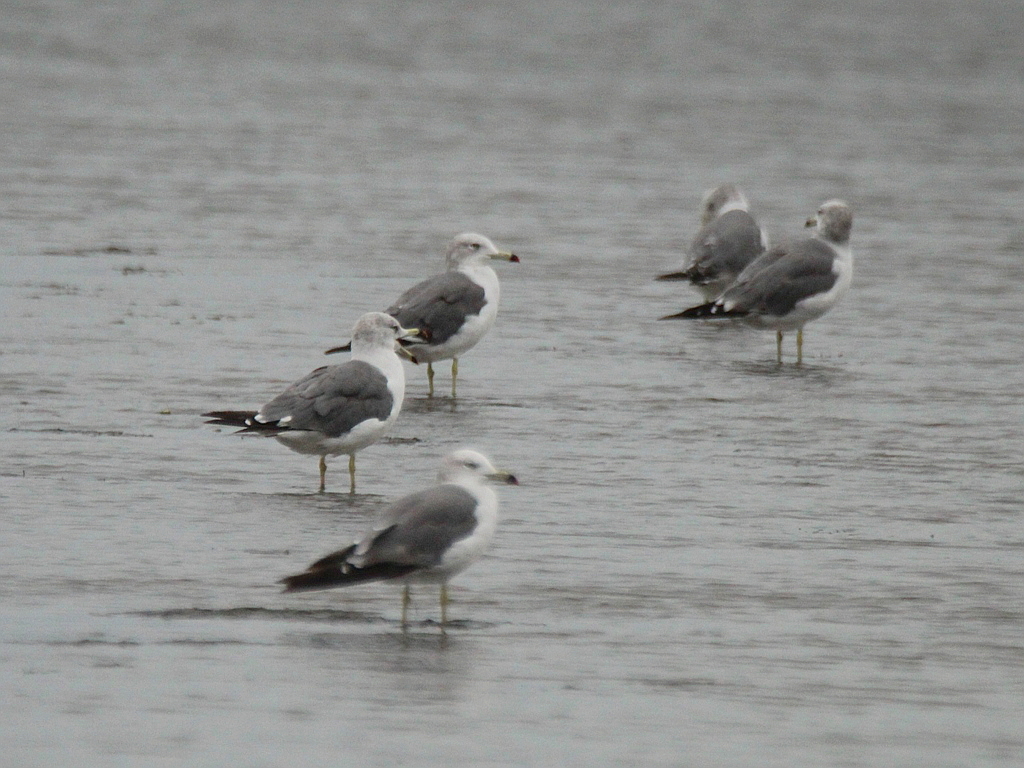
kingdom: Animalia
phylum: Chordata
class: Aves
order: Charadriiformes
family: Laridae
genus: Larus
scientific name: Larus crassirostris
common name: Black-tailed gull
